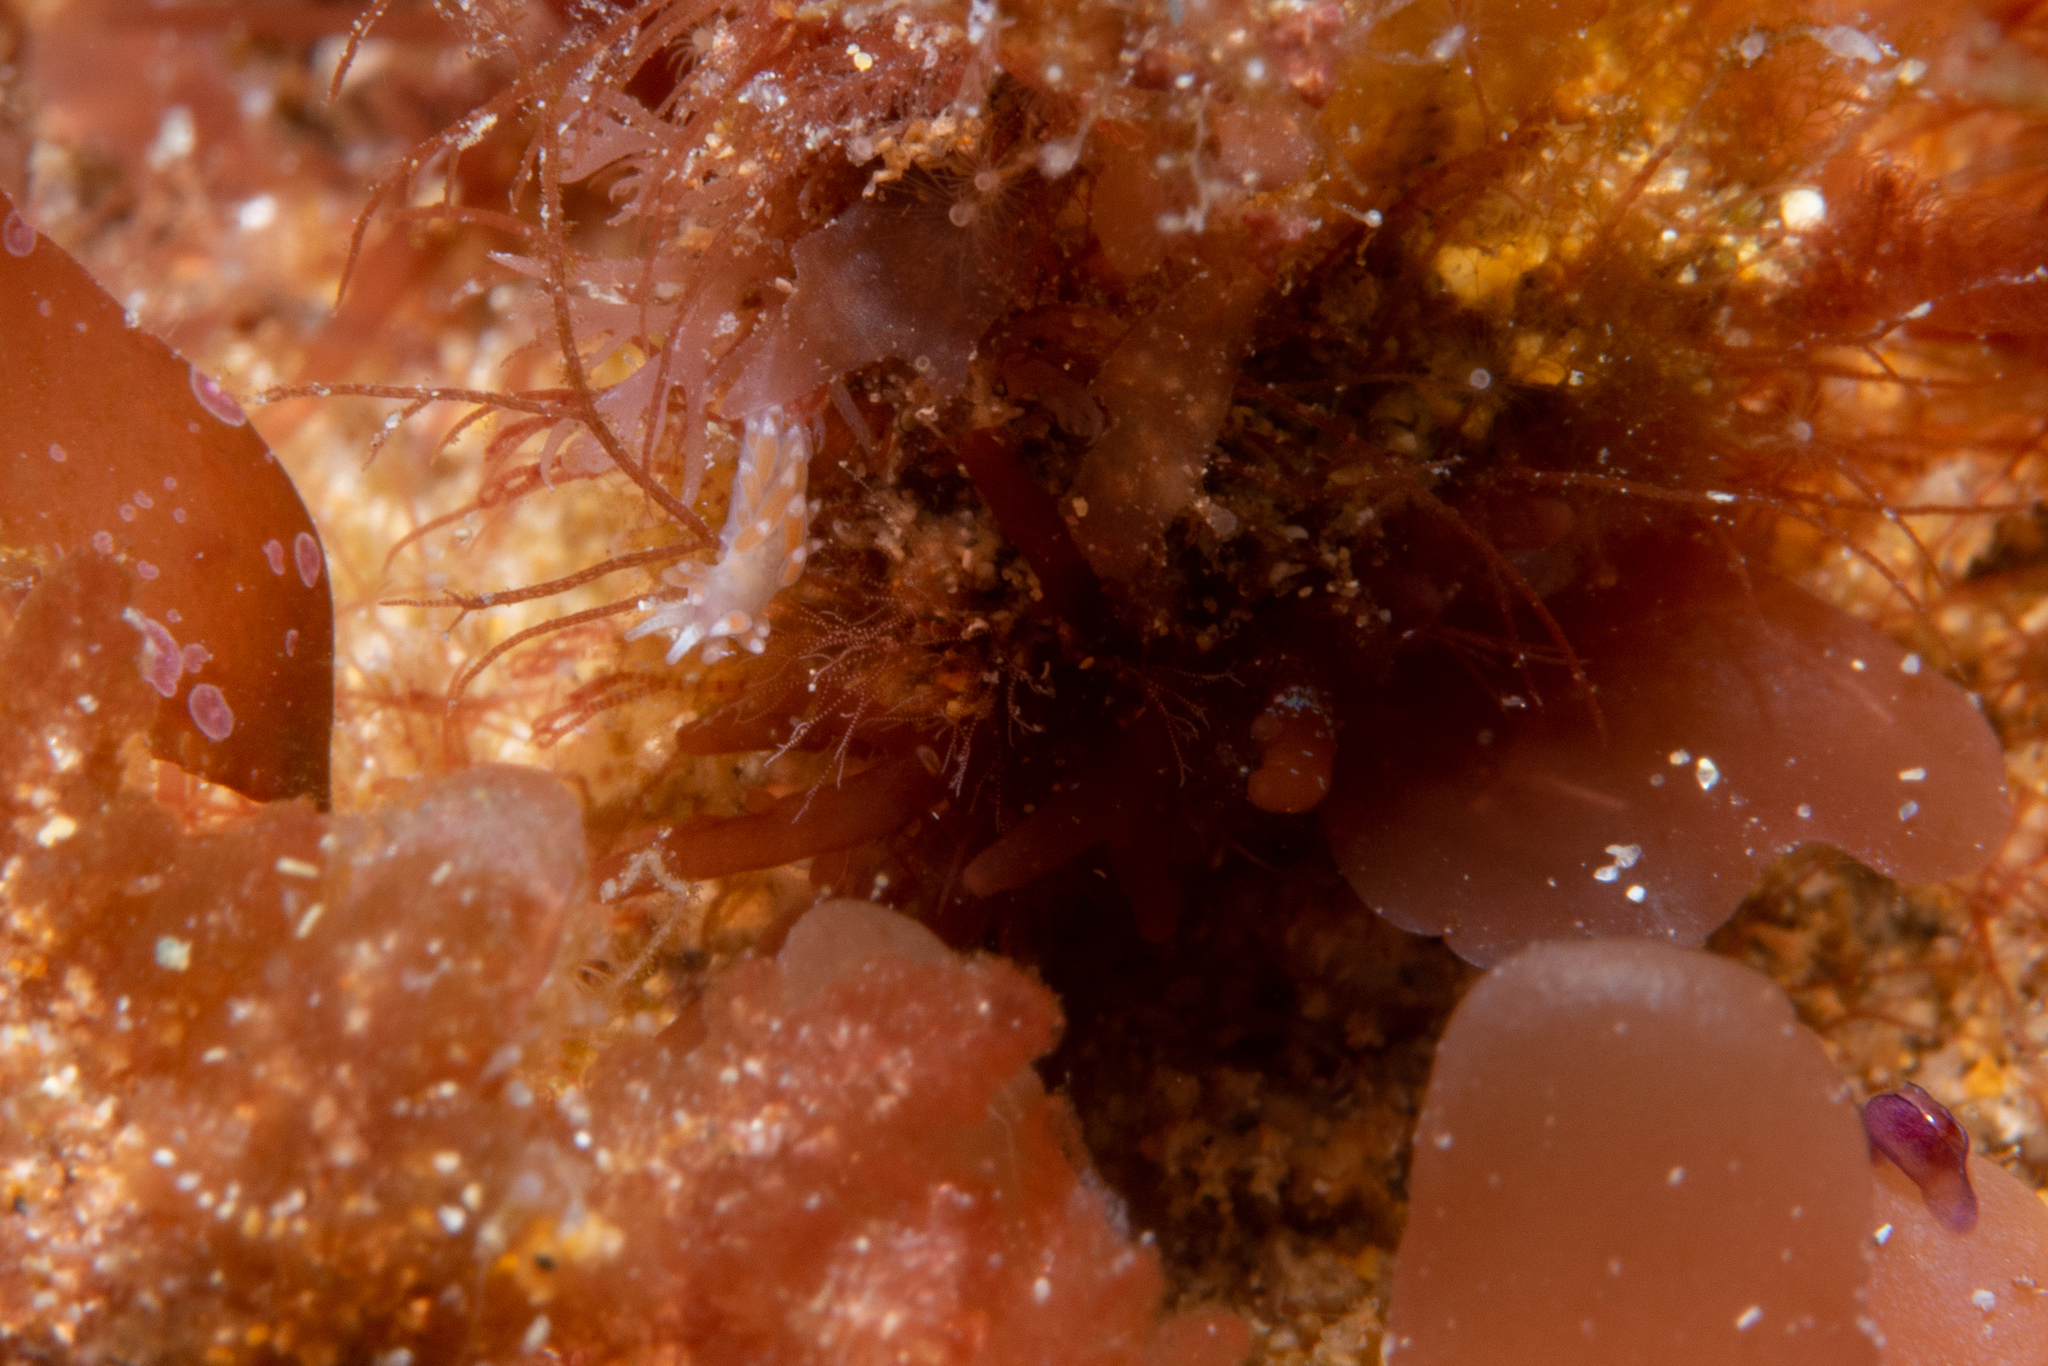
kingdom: Animalia
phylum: Mollusca
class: Gastropoda
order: Nudibranchia
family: Flabellinidae
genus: Coryphellina
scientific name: Coryphellina poenicia
